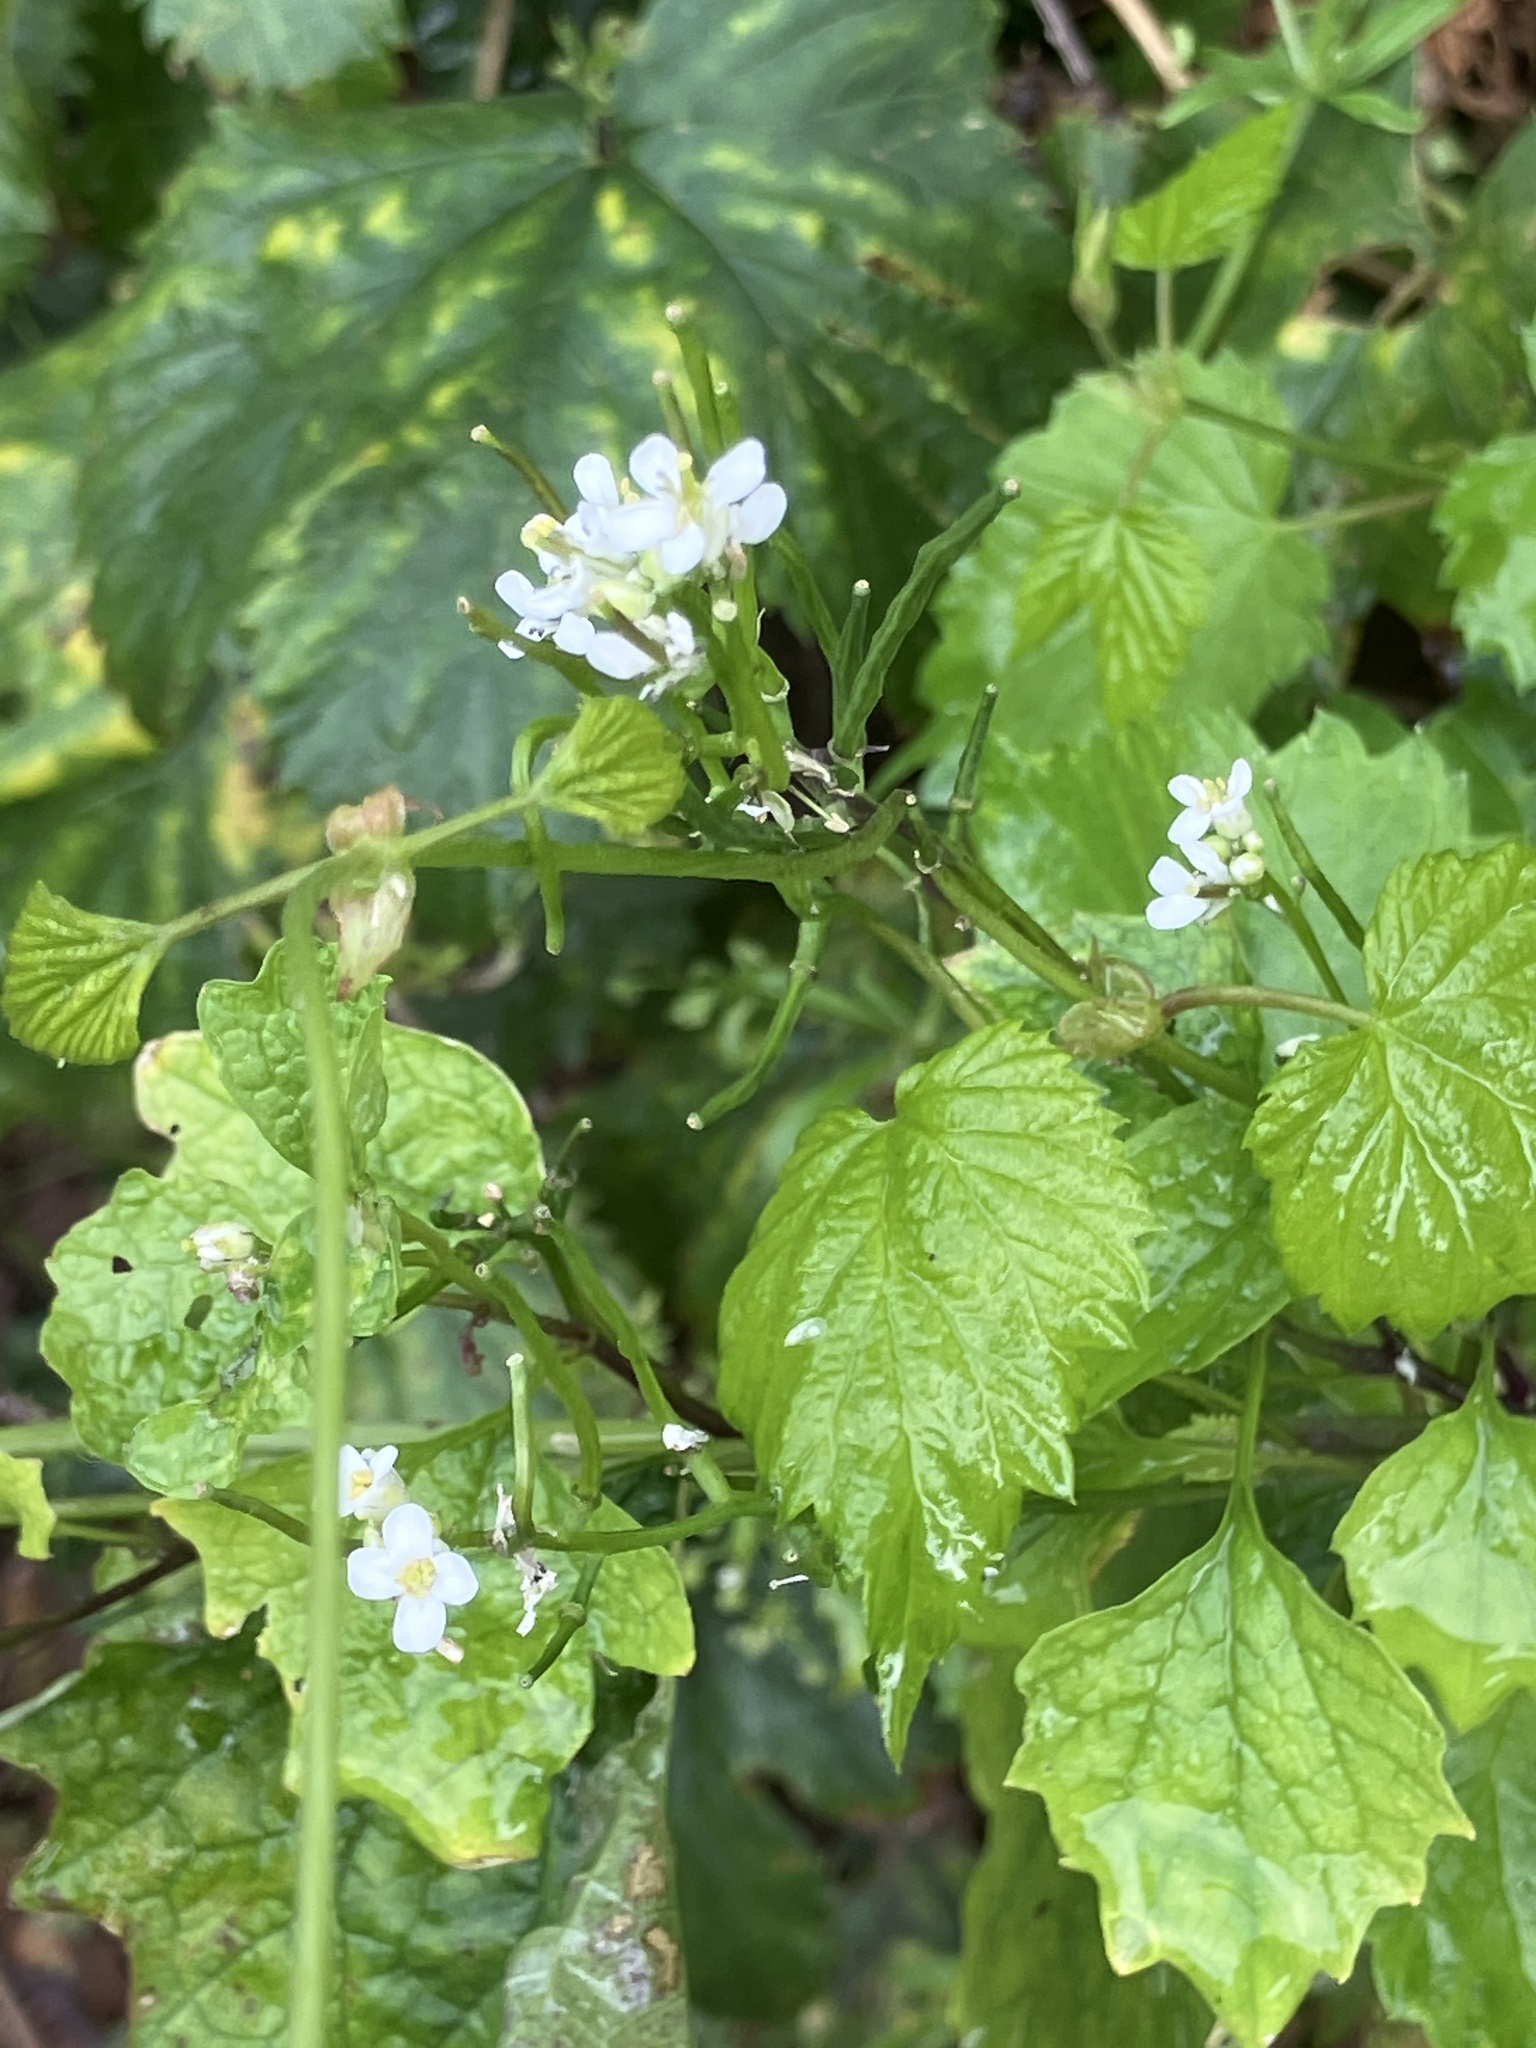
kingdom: Plantae
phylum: Tracheophyta
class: Magnoliopsida
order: Brassicales
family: Brassicaceae
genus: Alliaria
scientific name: Alliaria petiolata
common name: Garlic mustard
